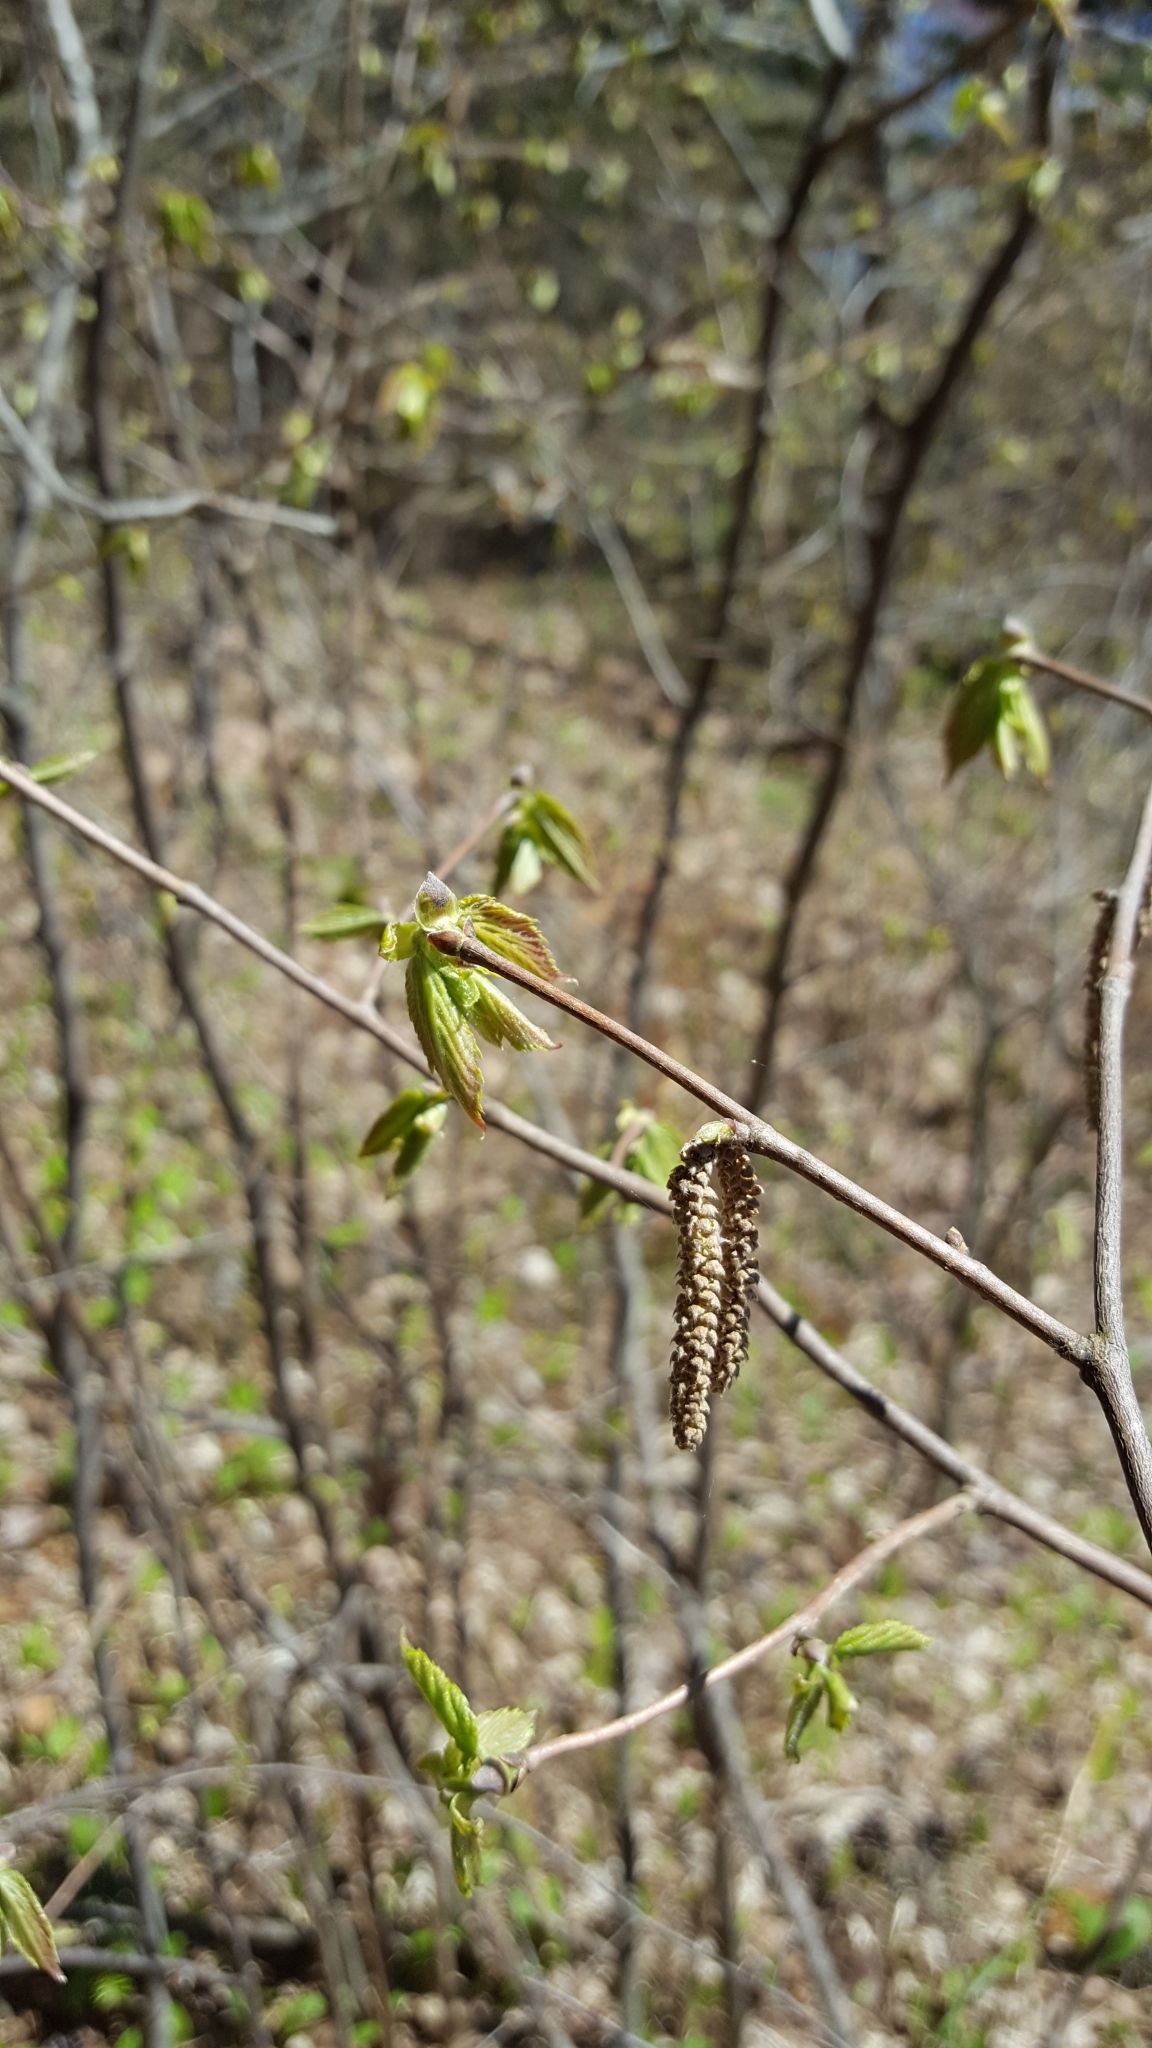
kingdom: Plantae
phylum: Tracheophyta
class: Magnoliopsida
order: Fagales
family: Betulaceae
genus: Corylus
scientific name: Corylus cornuta
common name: Beaked hazel
